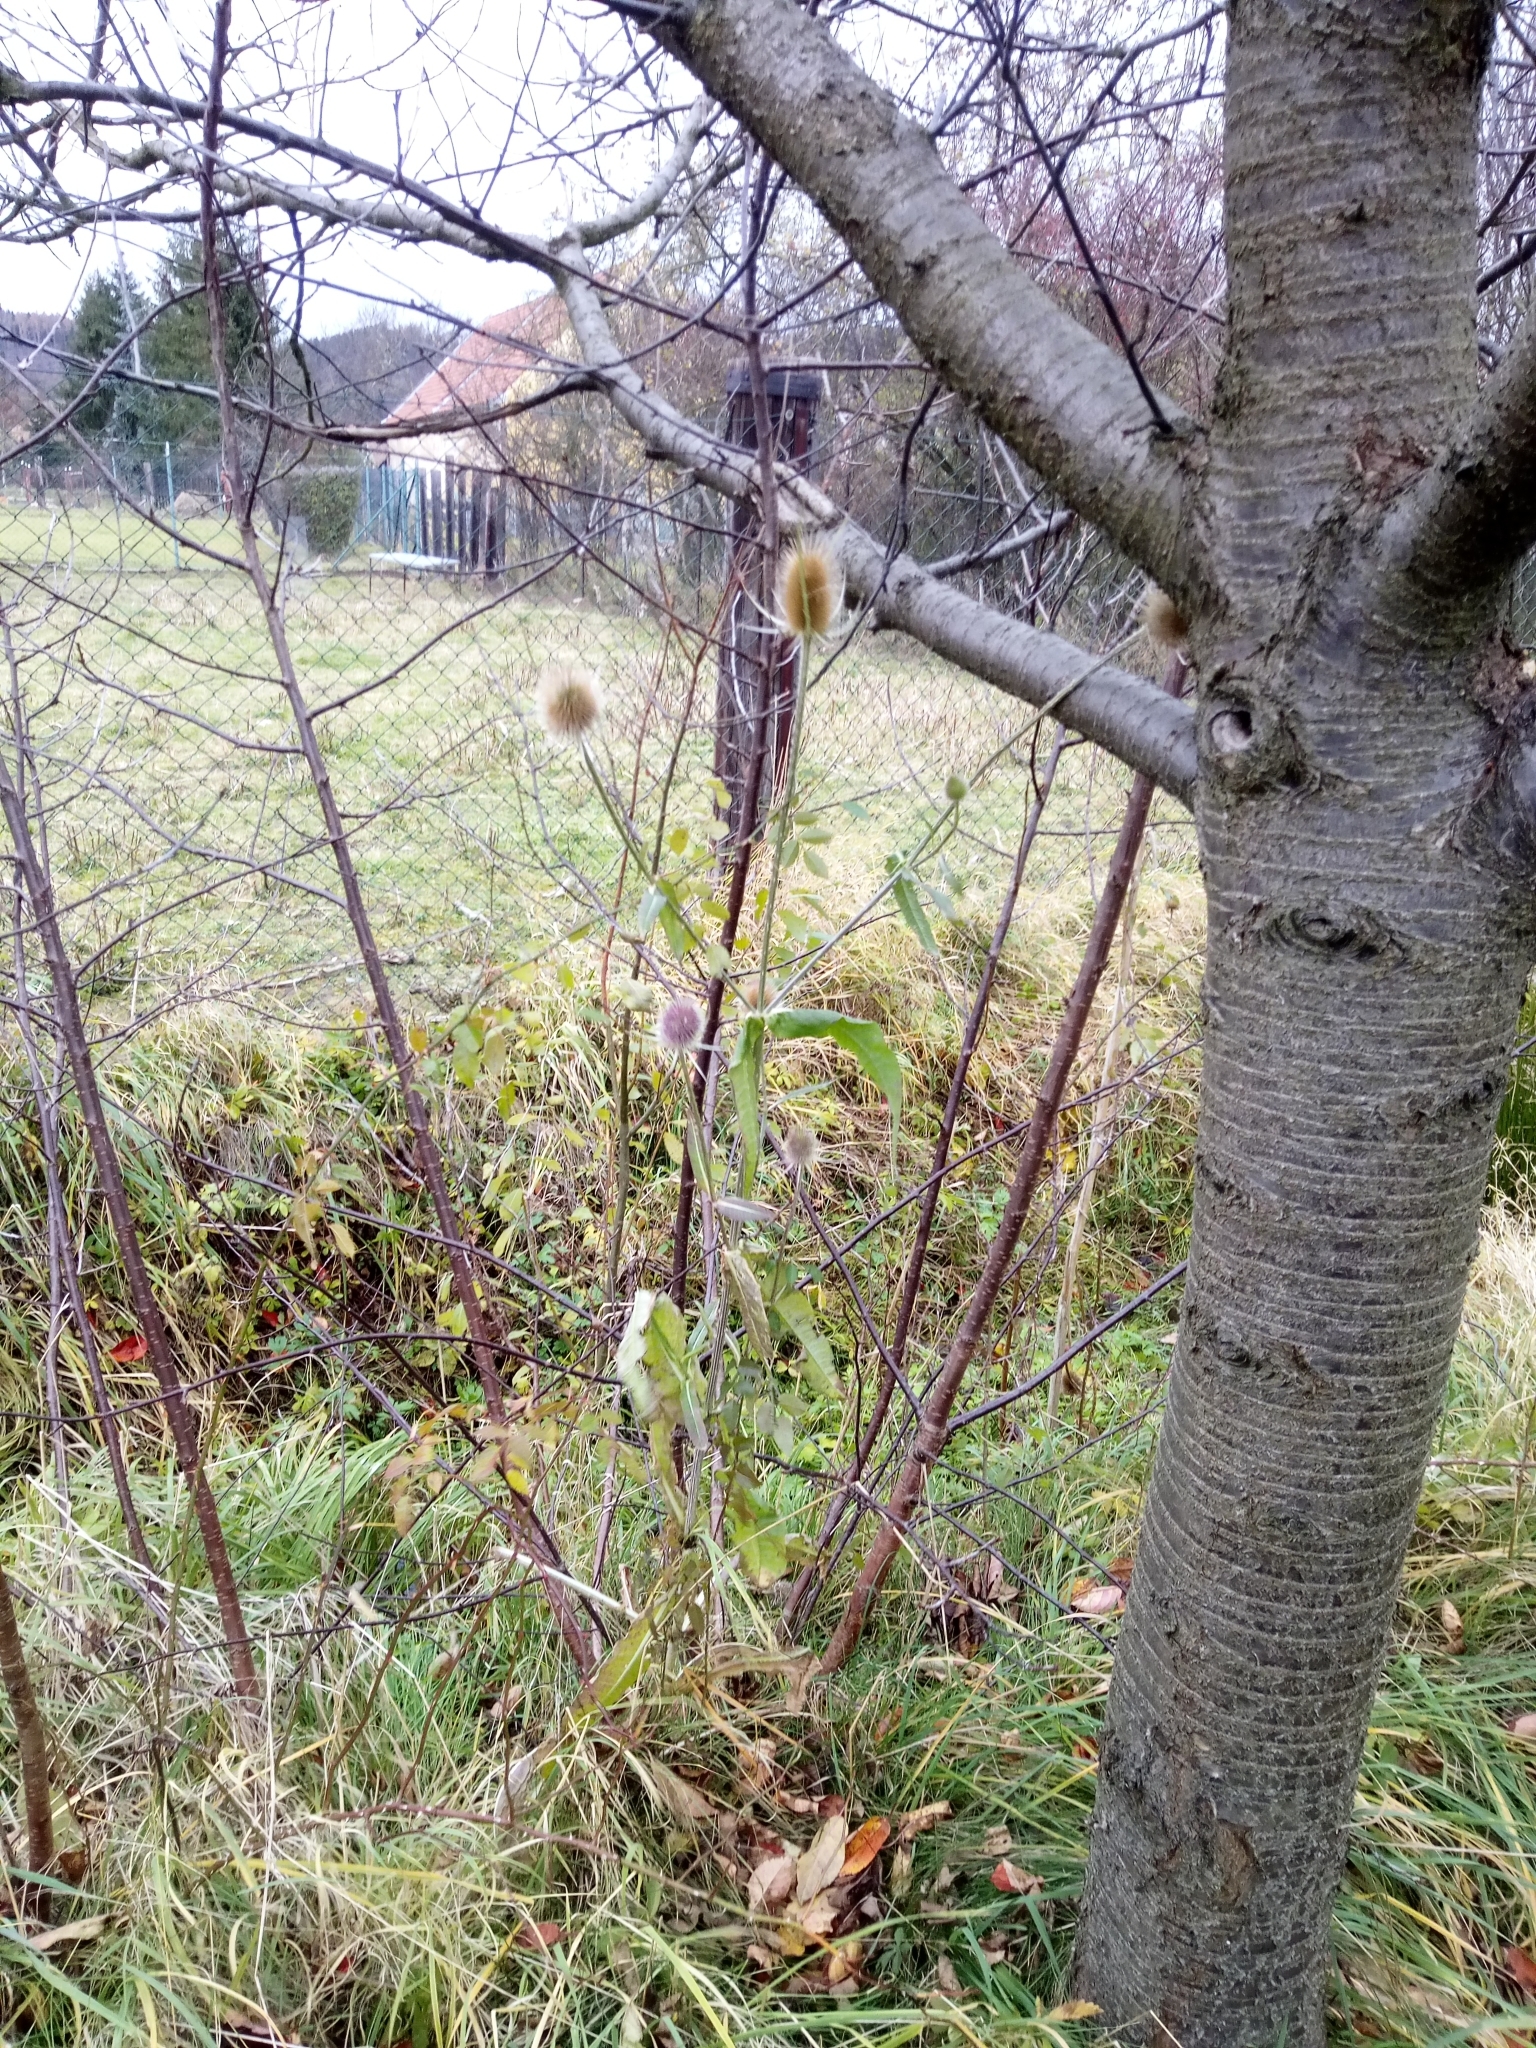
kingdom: Plantae
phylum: Tracheophyta
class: Magnoliopsida
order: Dipsacales
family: Caprifoliaceae
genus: Dipsacus
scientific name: Dipsacus fullonum
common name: Teasel
